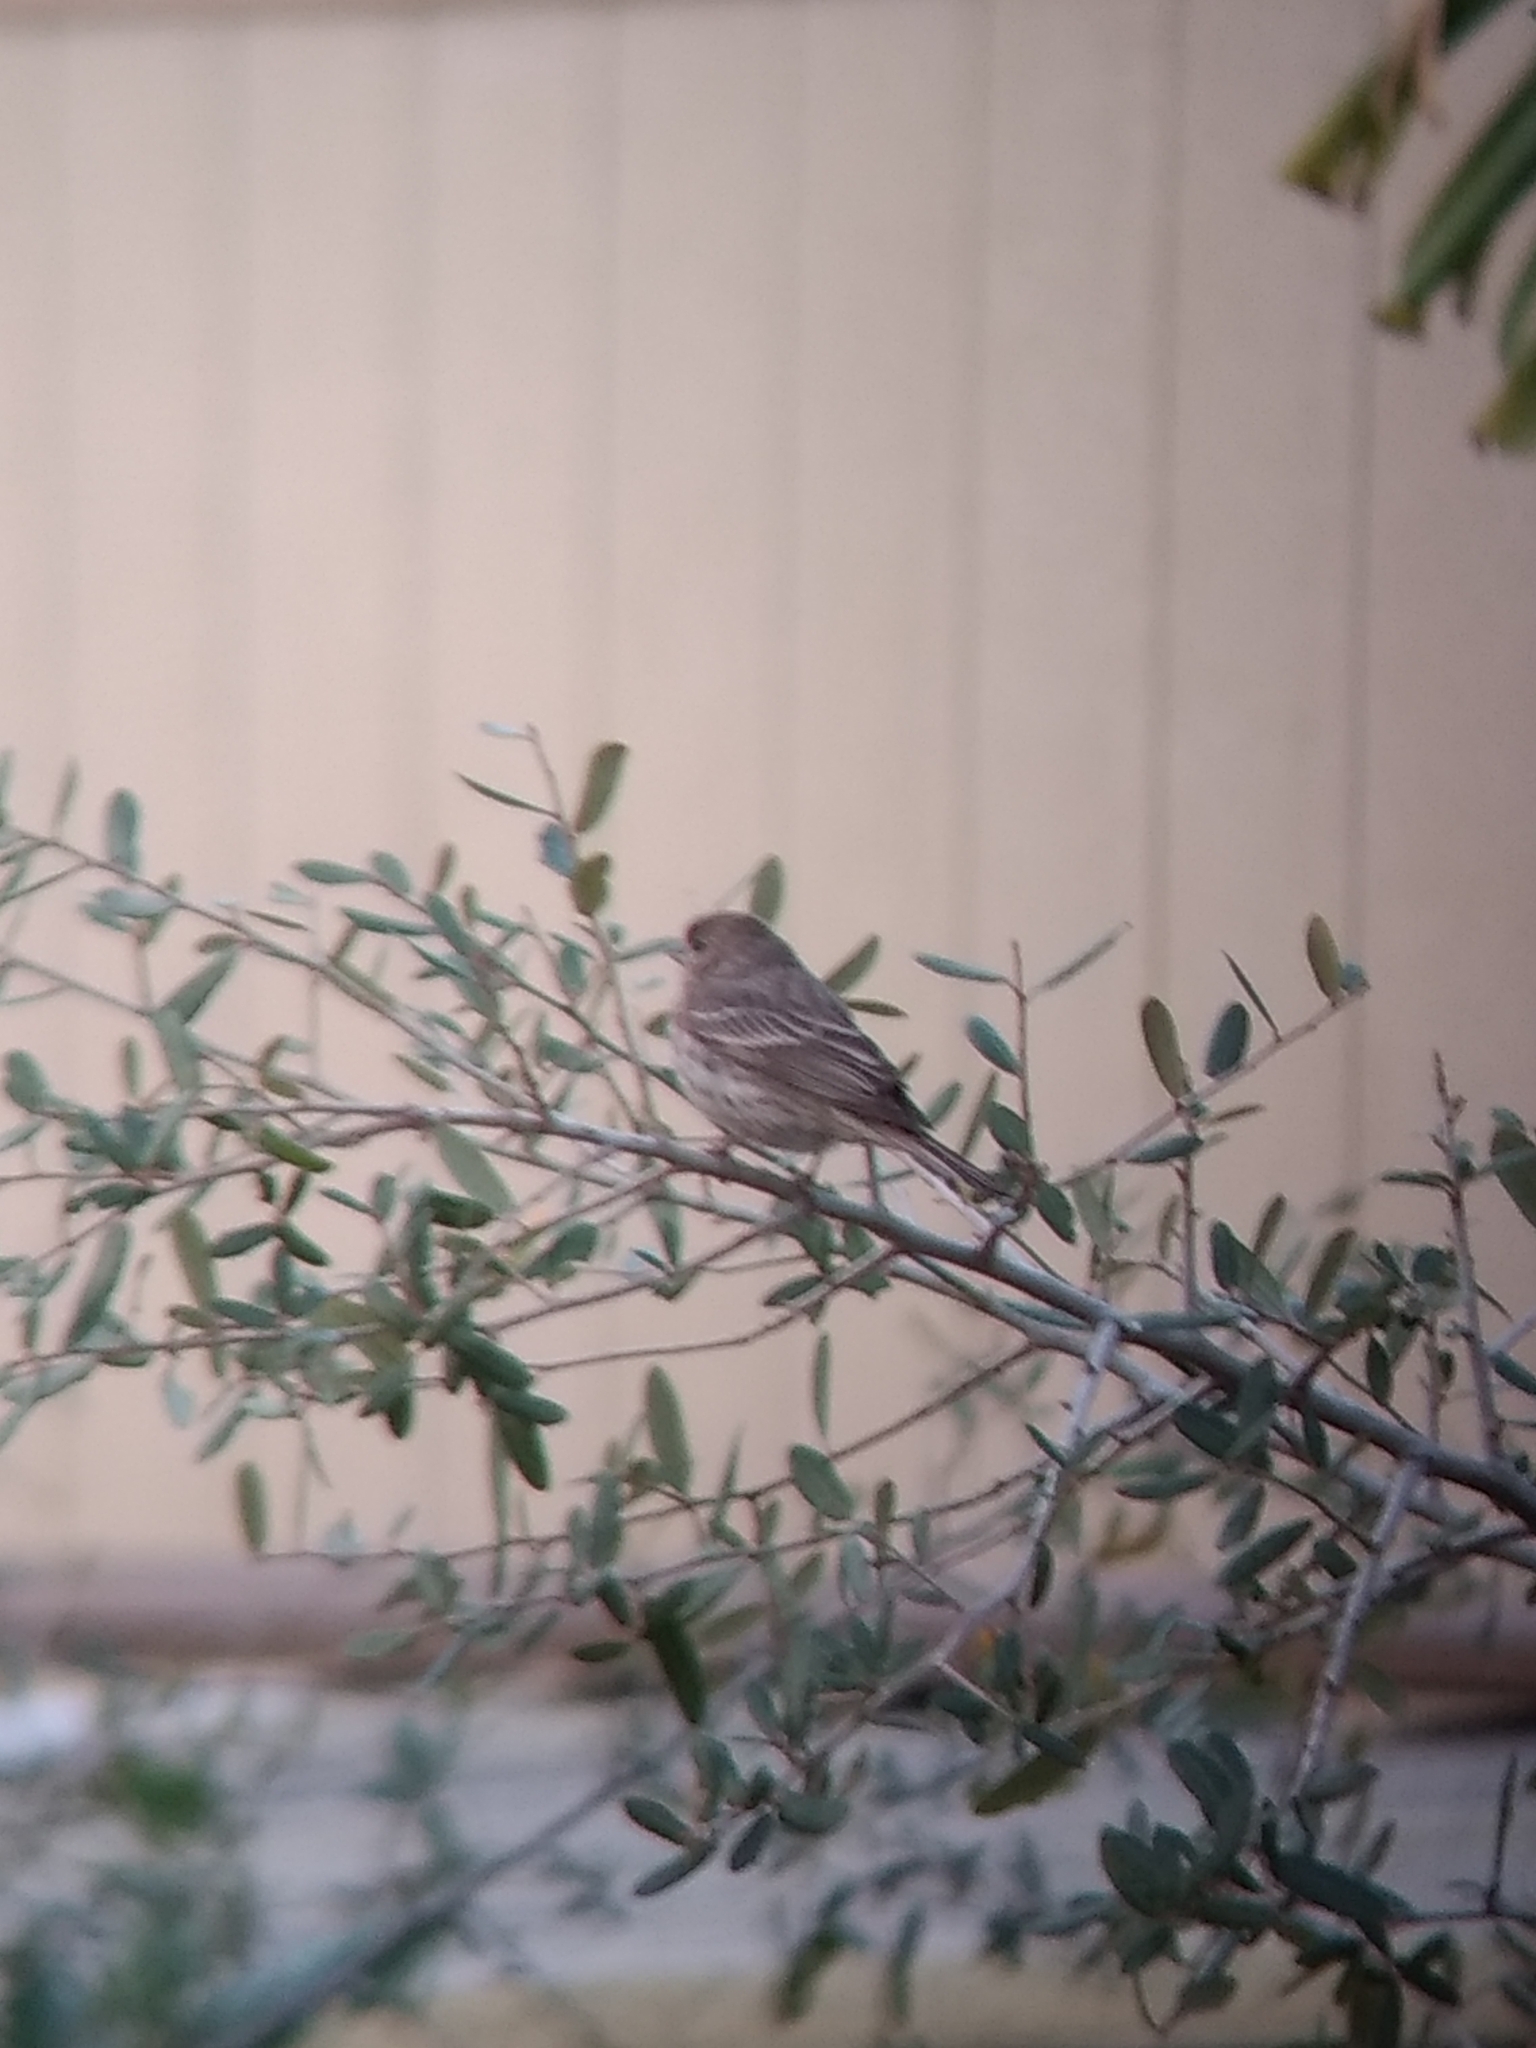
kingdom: Animalia
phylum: Chordata
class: Aves
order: Passeriformes
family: Fringillidae
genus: Haemorhous
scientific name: Haemorhous mexicanus
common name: House finch
